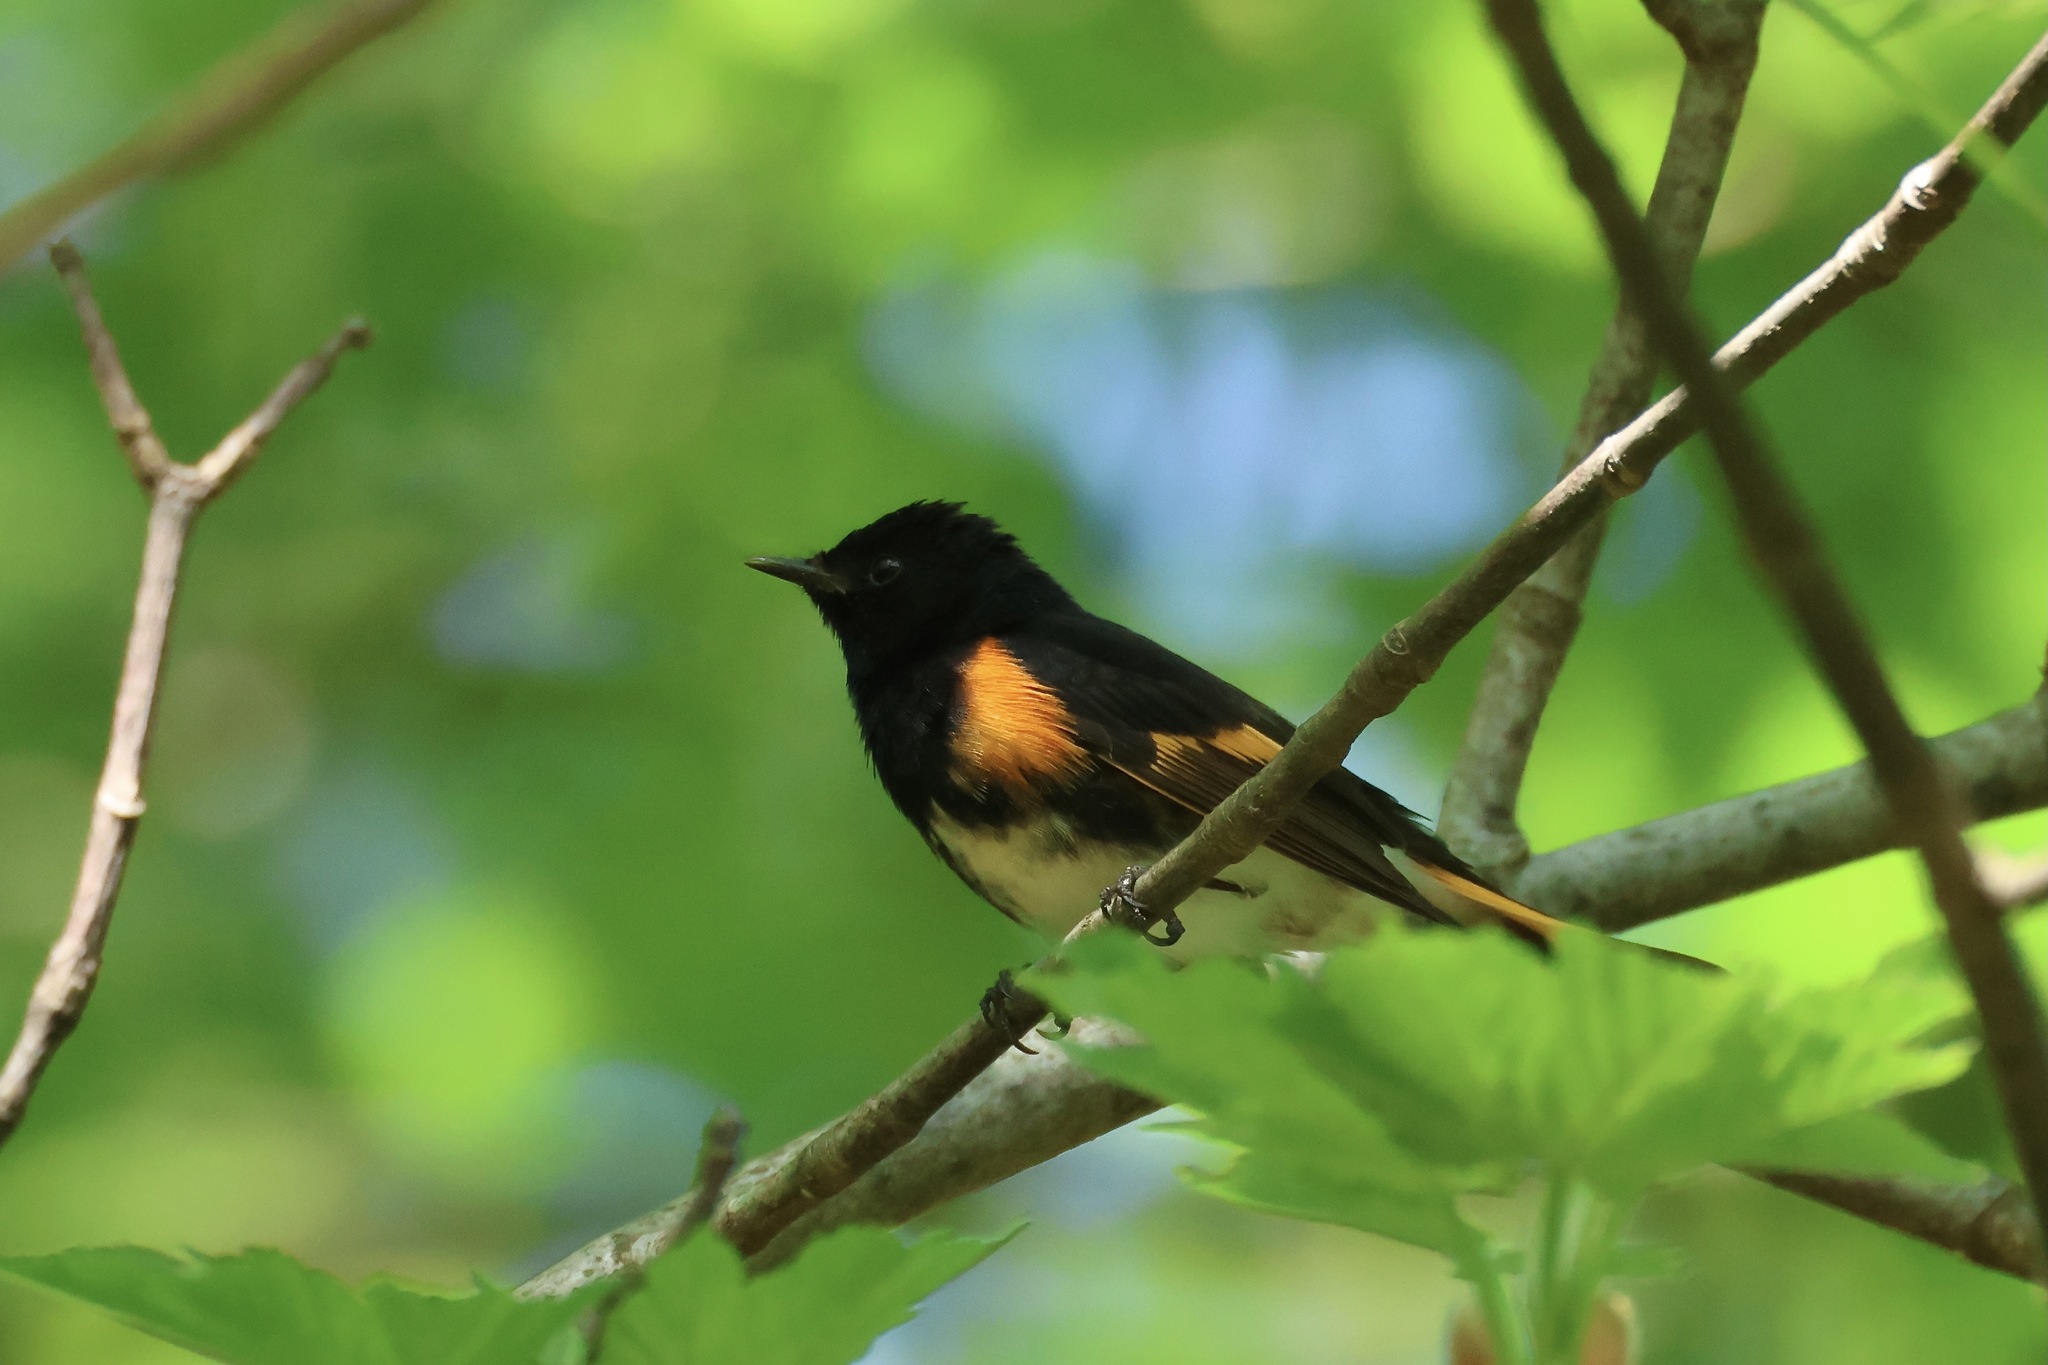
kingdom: Animalia
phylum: Chordata
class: Aves
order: Passeriformes
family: Parulidae
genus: Setophaga
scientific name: Setophaga ruticilla
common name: American redstart
